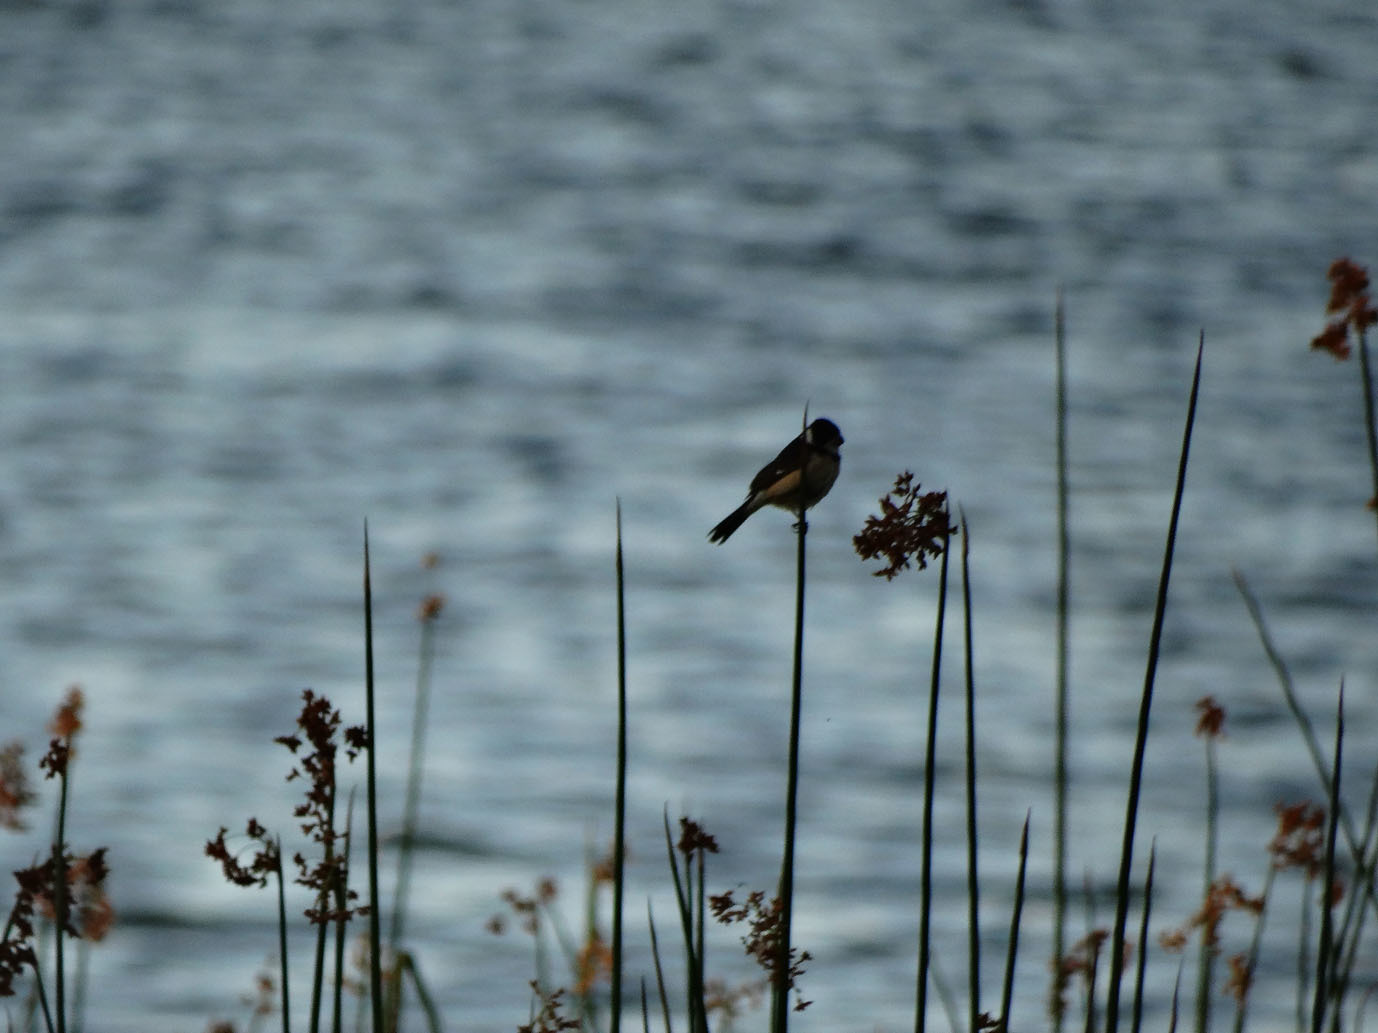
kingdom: Animalia
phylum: Chordata
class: Aves
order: Passeriformes
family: Thraupidae
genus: Sporophila
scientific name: Sporophila torqueola
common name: White-collared seedeater
